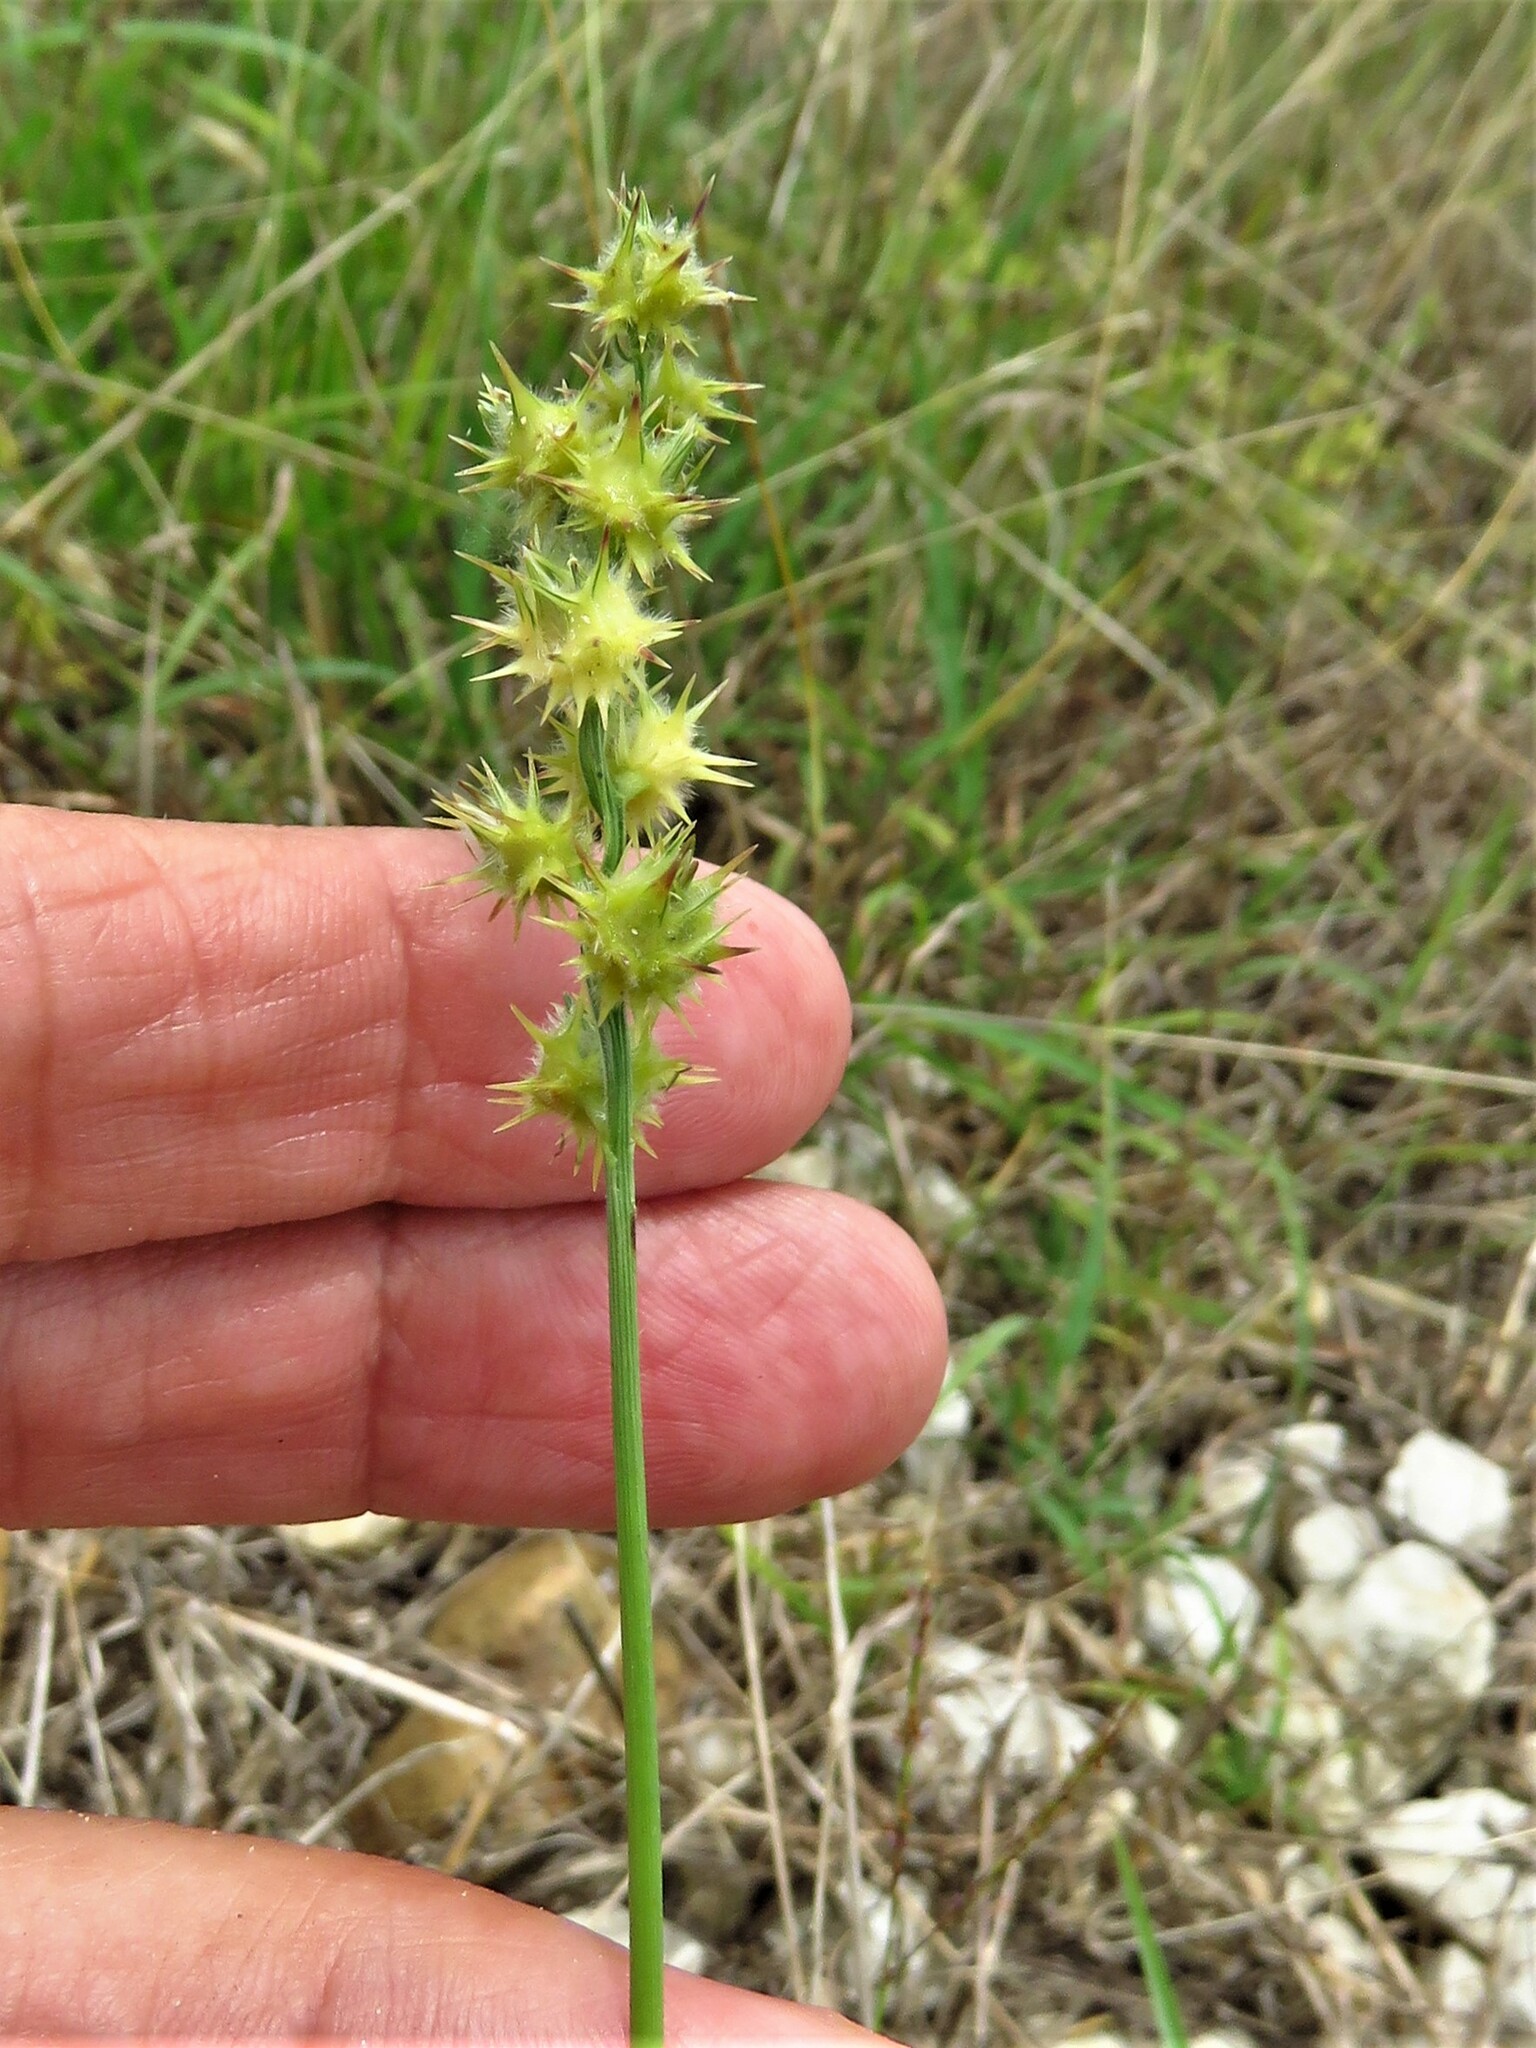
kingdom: Plantae
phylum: Tracheophyta
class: Liliopsida
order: Poales
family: Poaceae
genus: Cenchrus
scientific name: Cenchrus spinifex
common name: Coast sandbur
